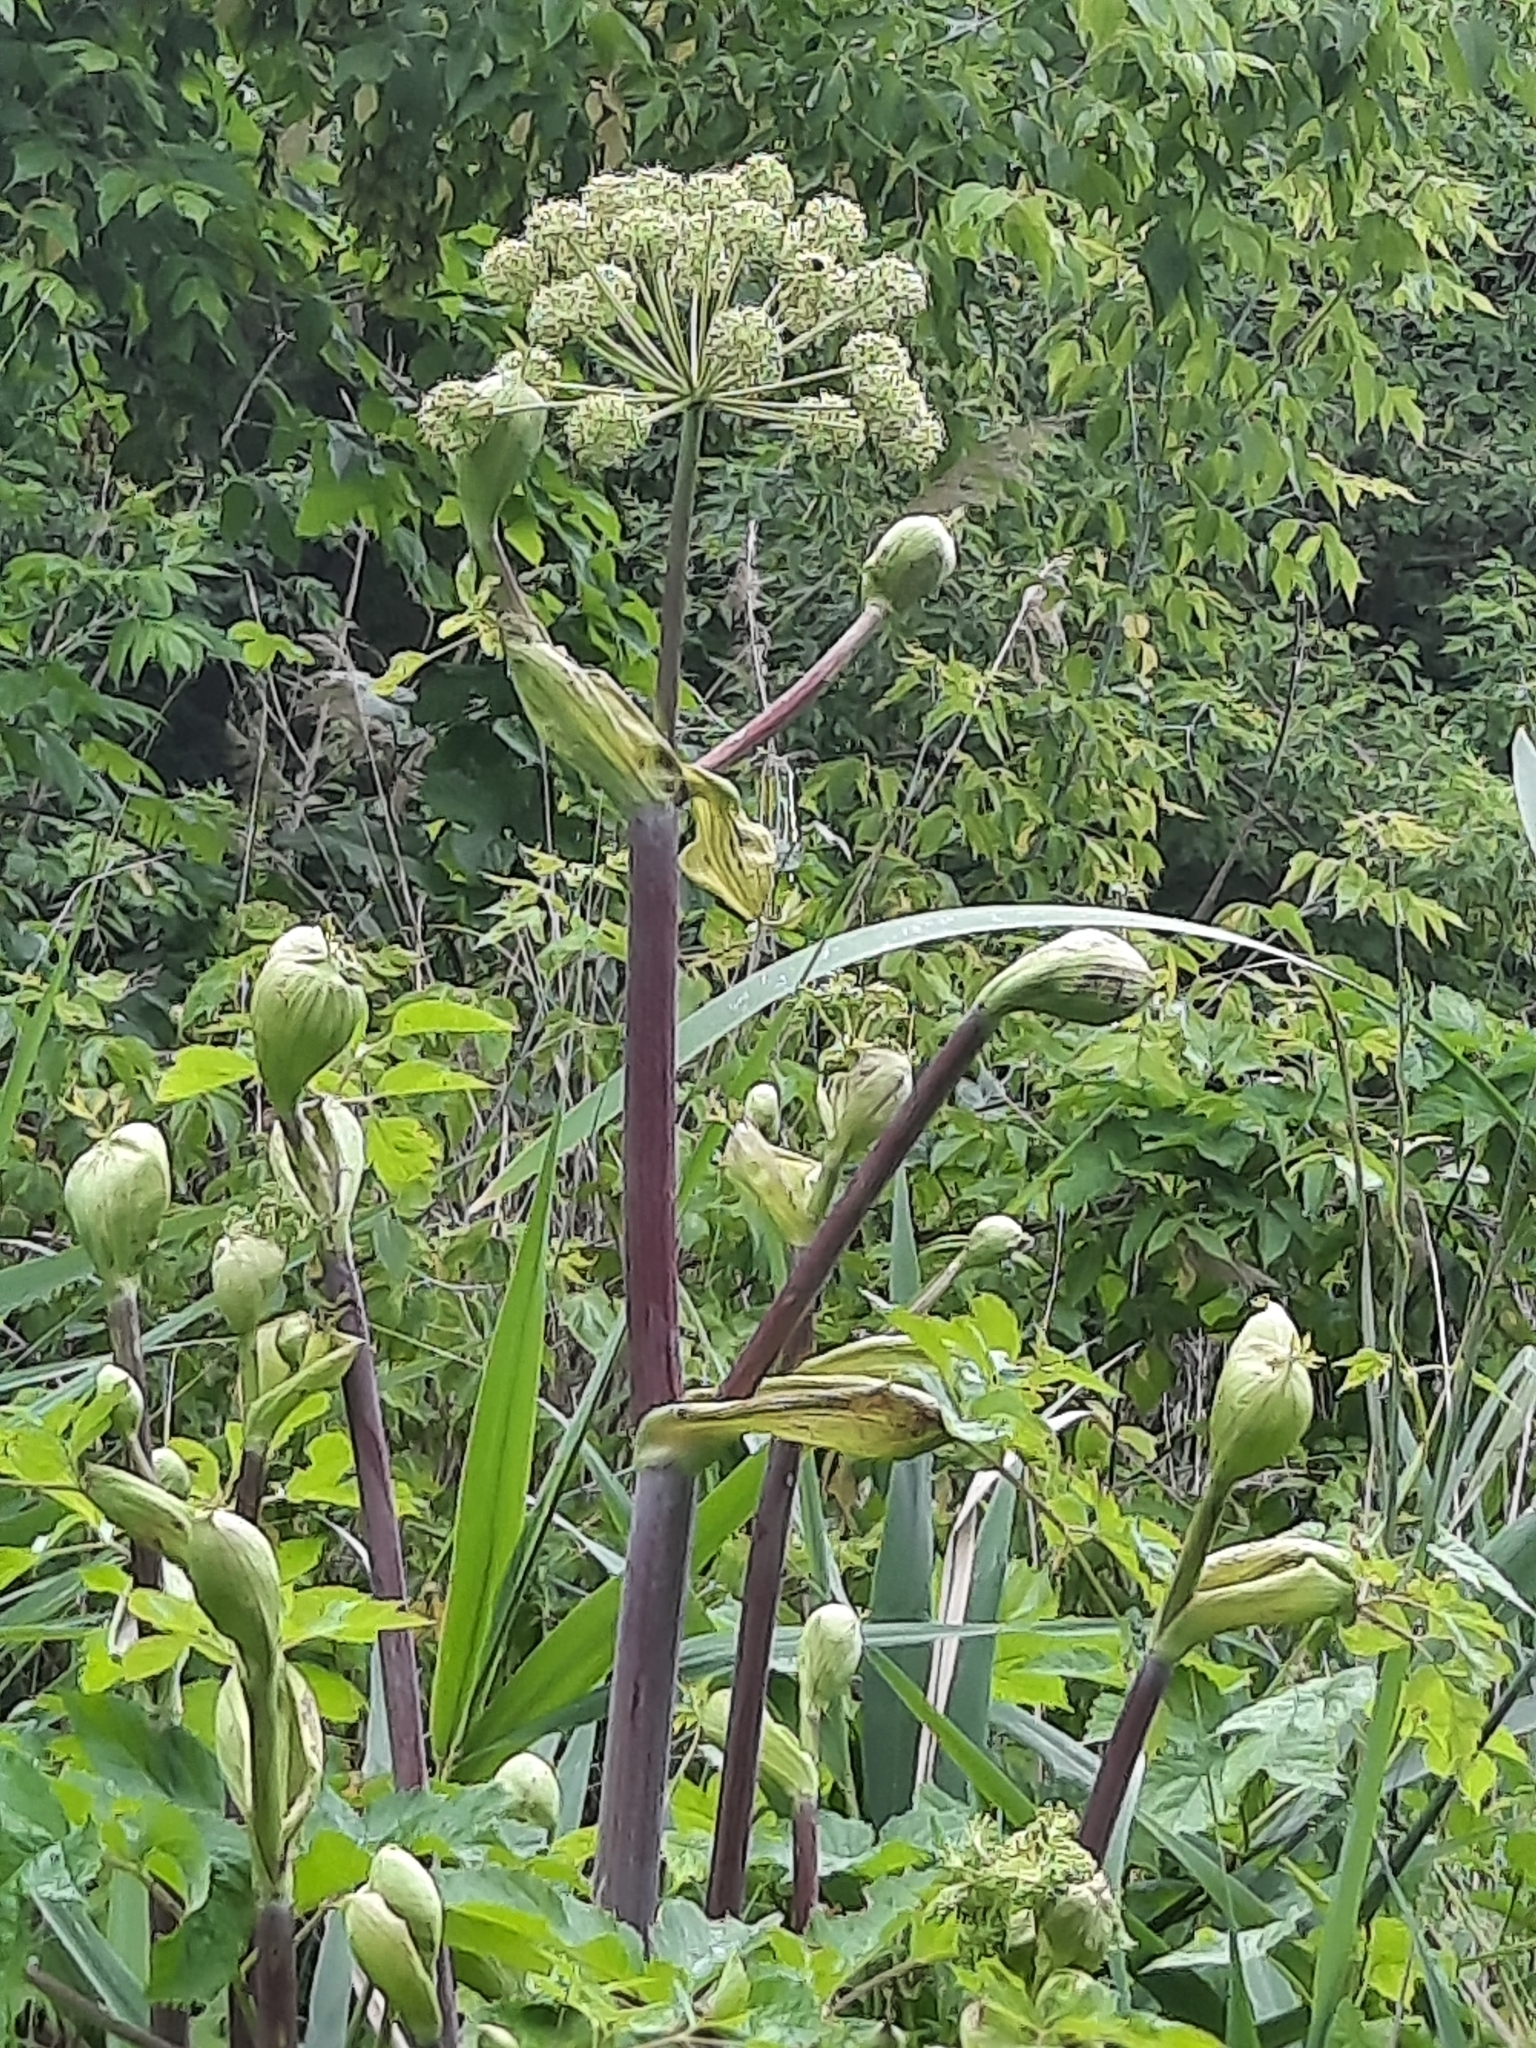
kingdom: Plantae
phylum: Tracheophyta
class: Magnoliopsida
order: Apiales
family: Apiaceae
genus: Angelica
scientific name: Angelica archangelica
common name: Garden angelica
